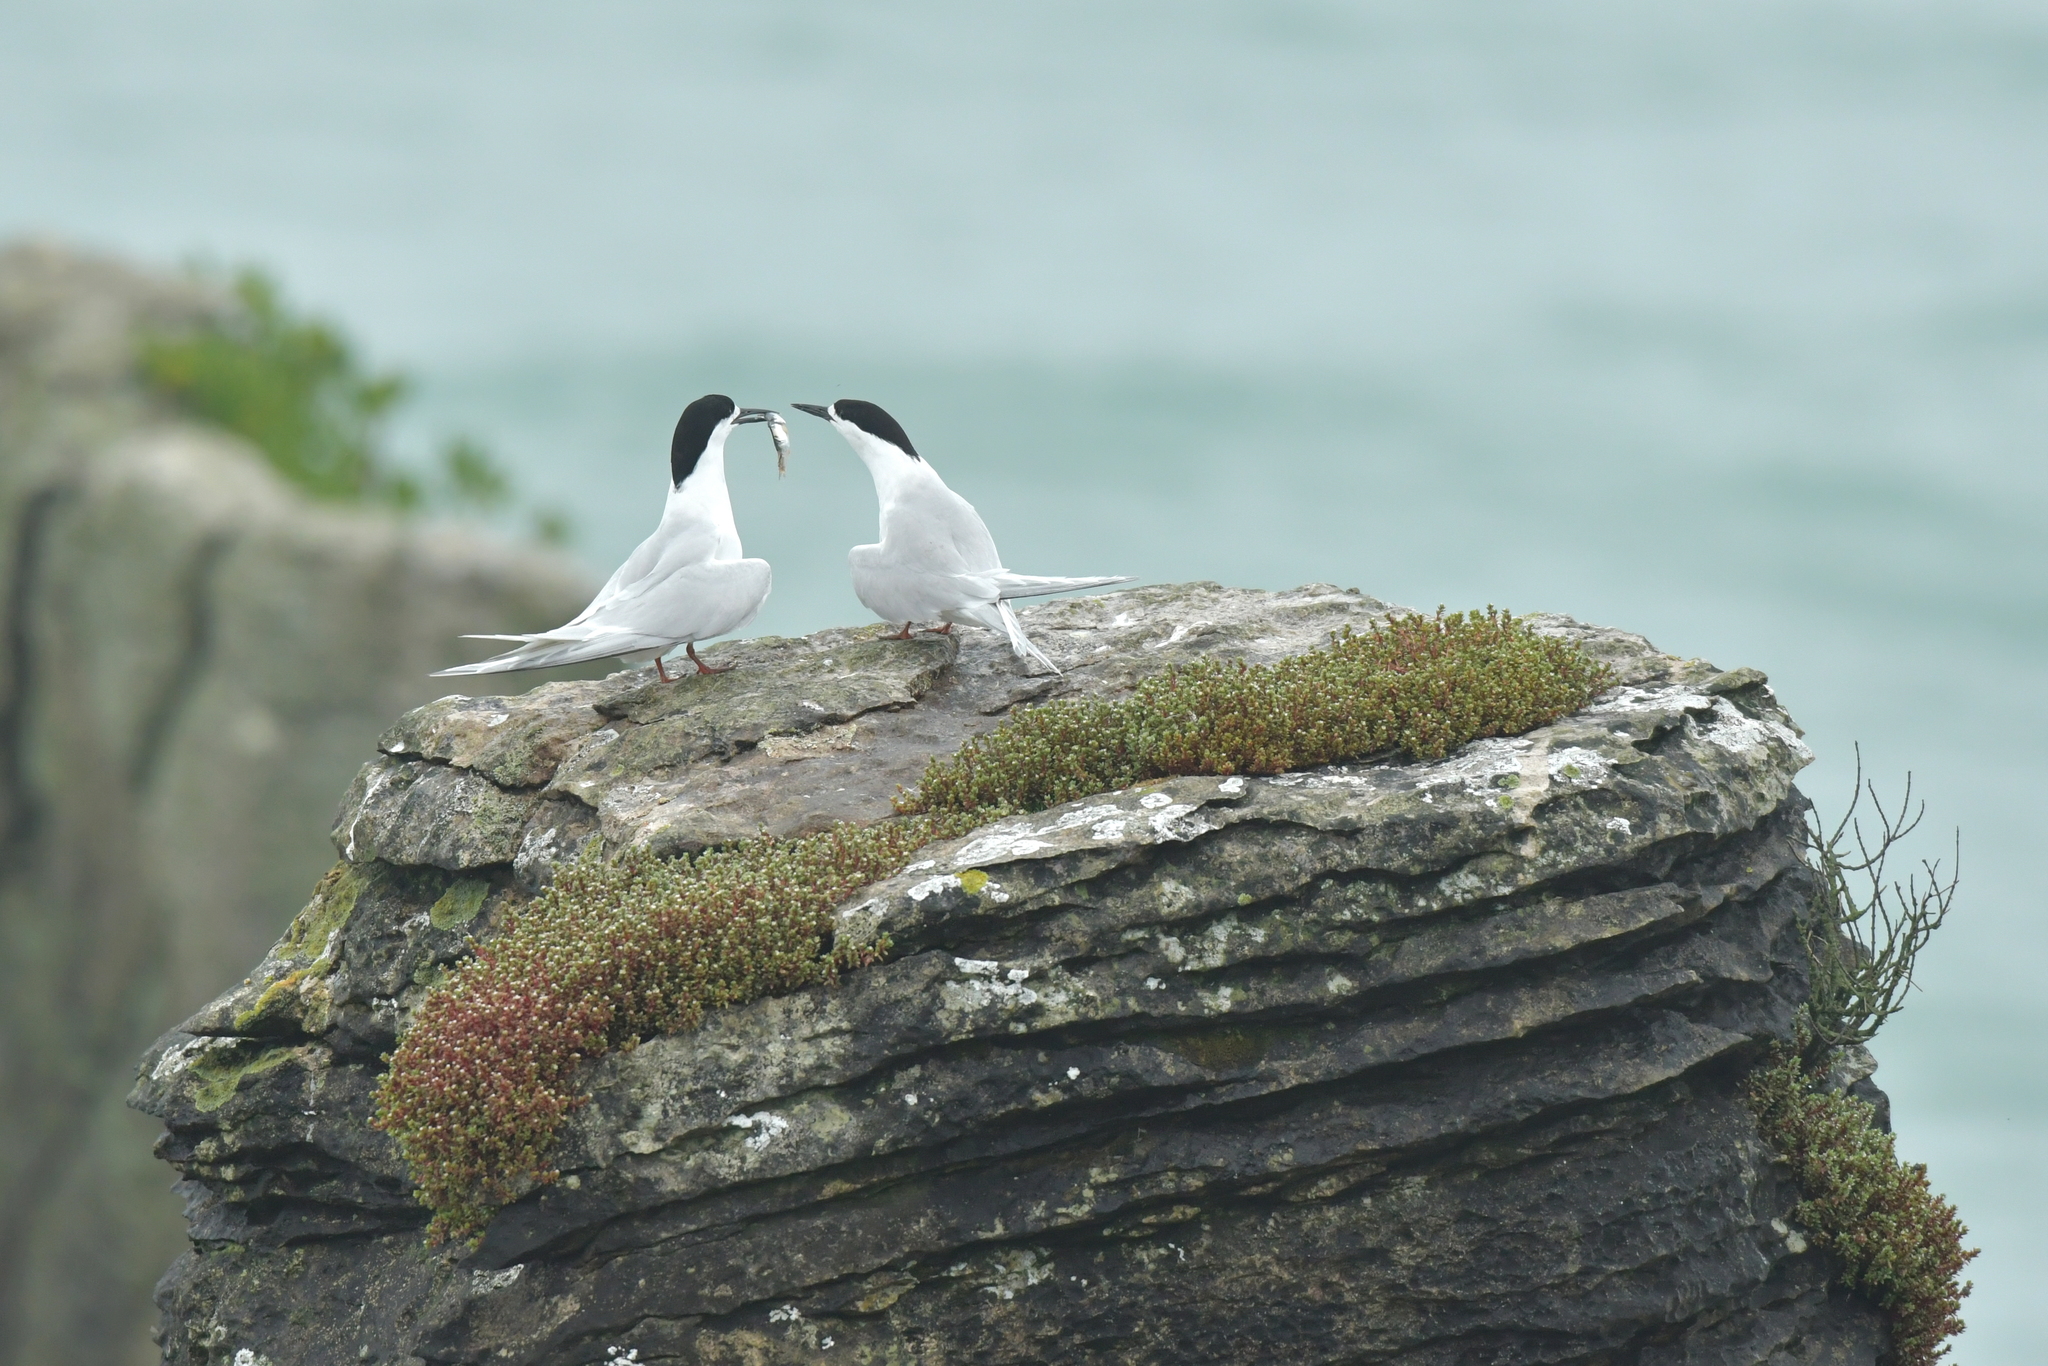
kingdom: Animalia
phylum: Chordata
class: Aves
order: Charadriiformes
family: Laridae
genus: Sterna
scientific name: Sterna striata
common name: White-fronted tern
